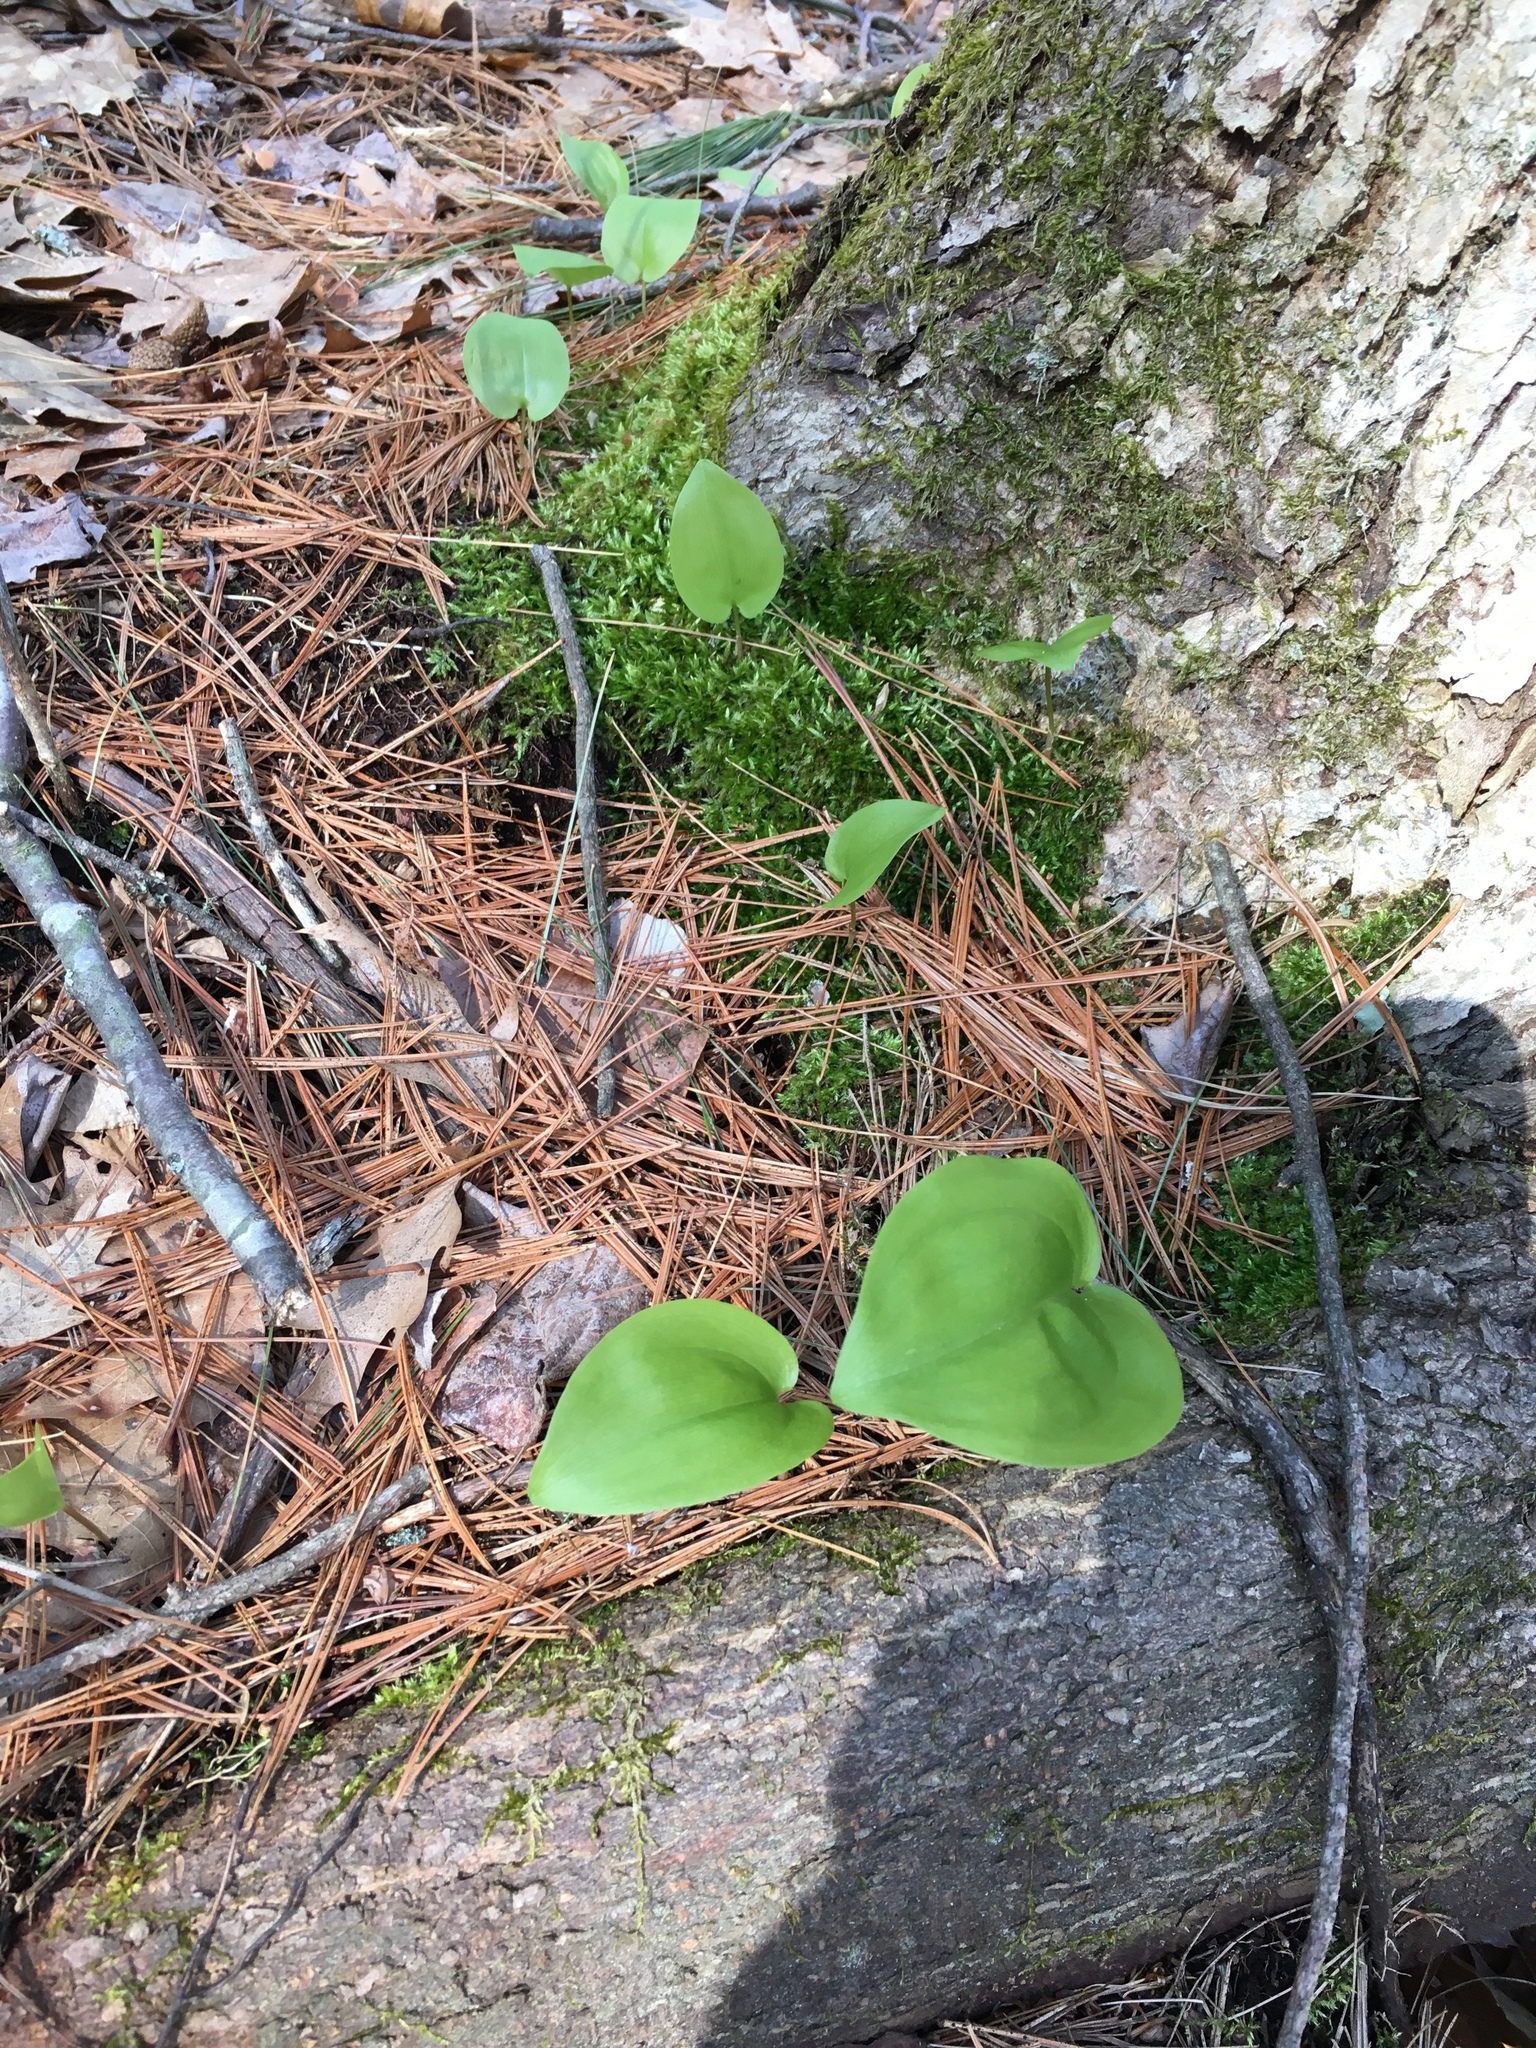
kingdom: Plantae
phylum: Tracheophyta
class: Liliopsida
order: Asparagales
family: Asparagaceae
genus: Maianthemum
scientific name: Maianthemum canadense
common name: False lily-of-the-valley
